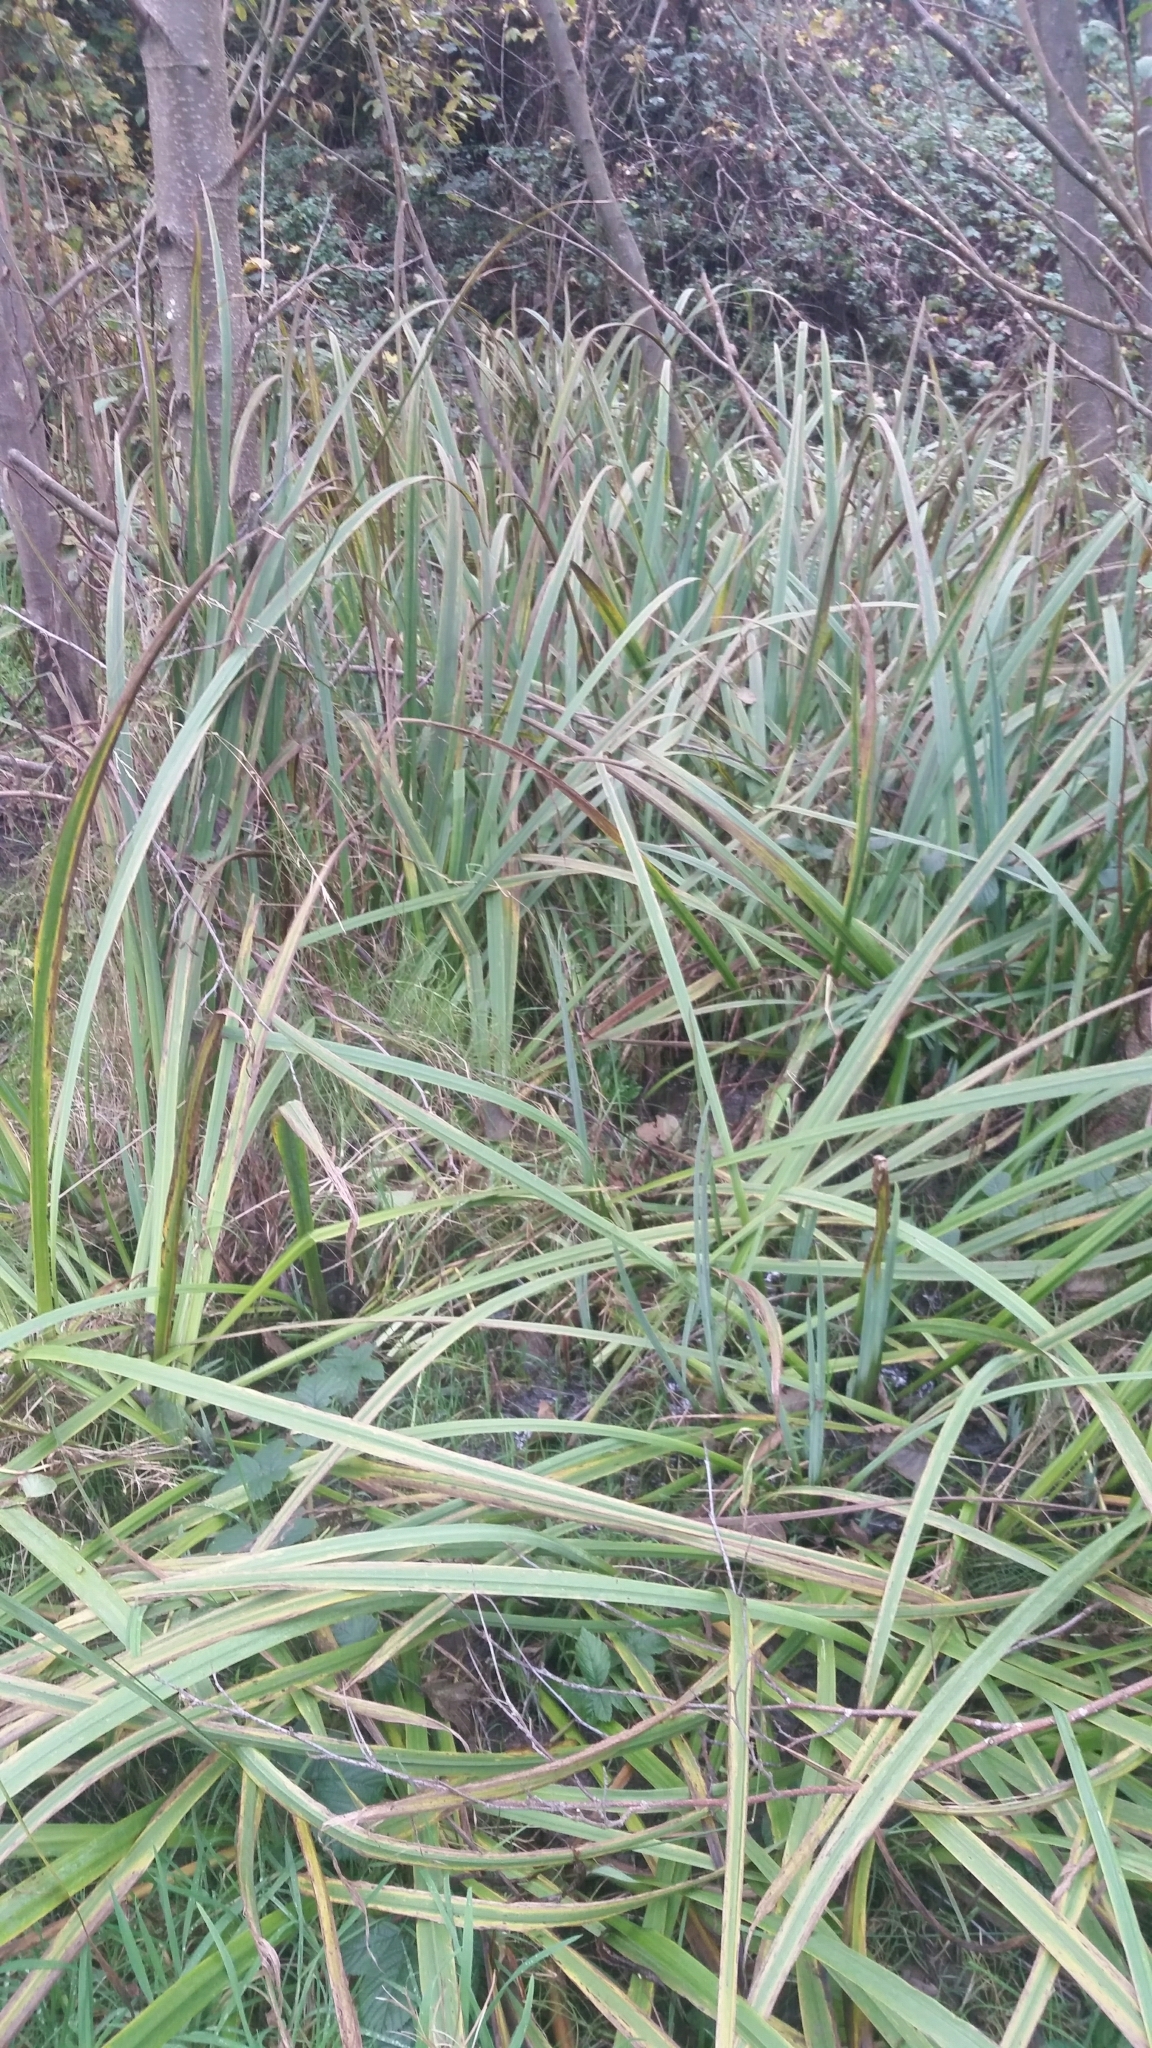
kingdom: Plantae
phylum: Tracheophyta
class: Liliopsida
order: Asparagales
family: Iridaceae
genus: Iris
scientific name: Iris pseudacorus
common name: Yellow flag
